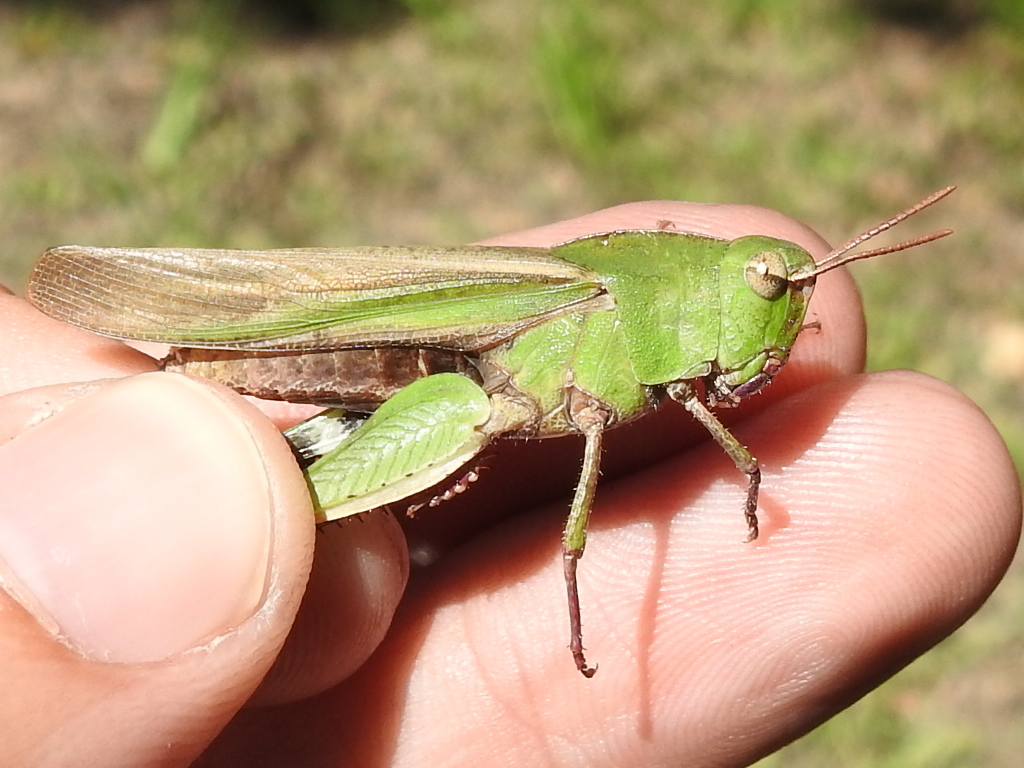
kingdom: Animalia
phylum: Arthropoda
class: Insecta
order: Orthoptera
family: Acrididae
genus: Chortophaga
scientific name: Chortophaga viridifasciata
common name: Green-striped grasshopper
